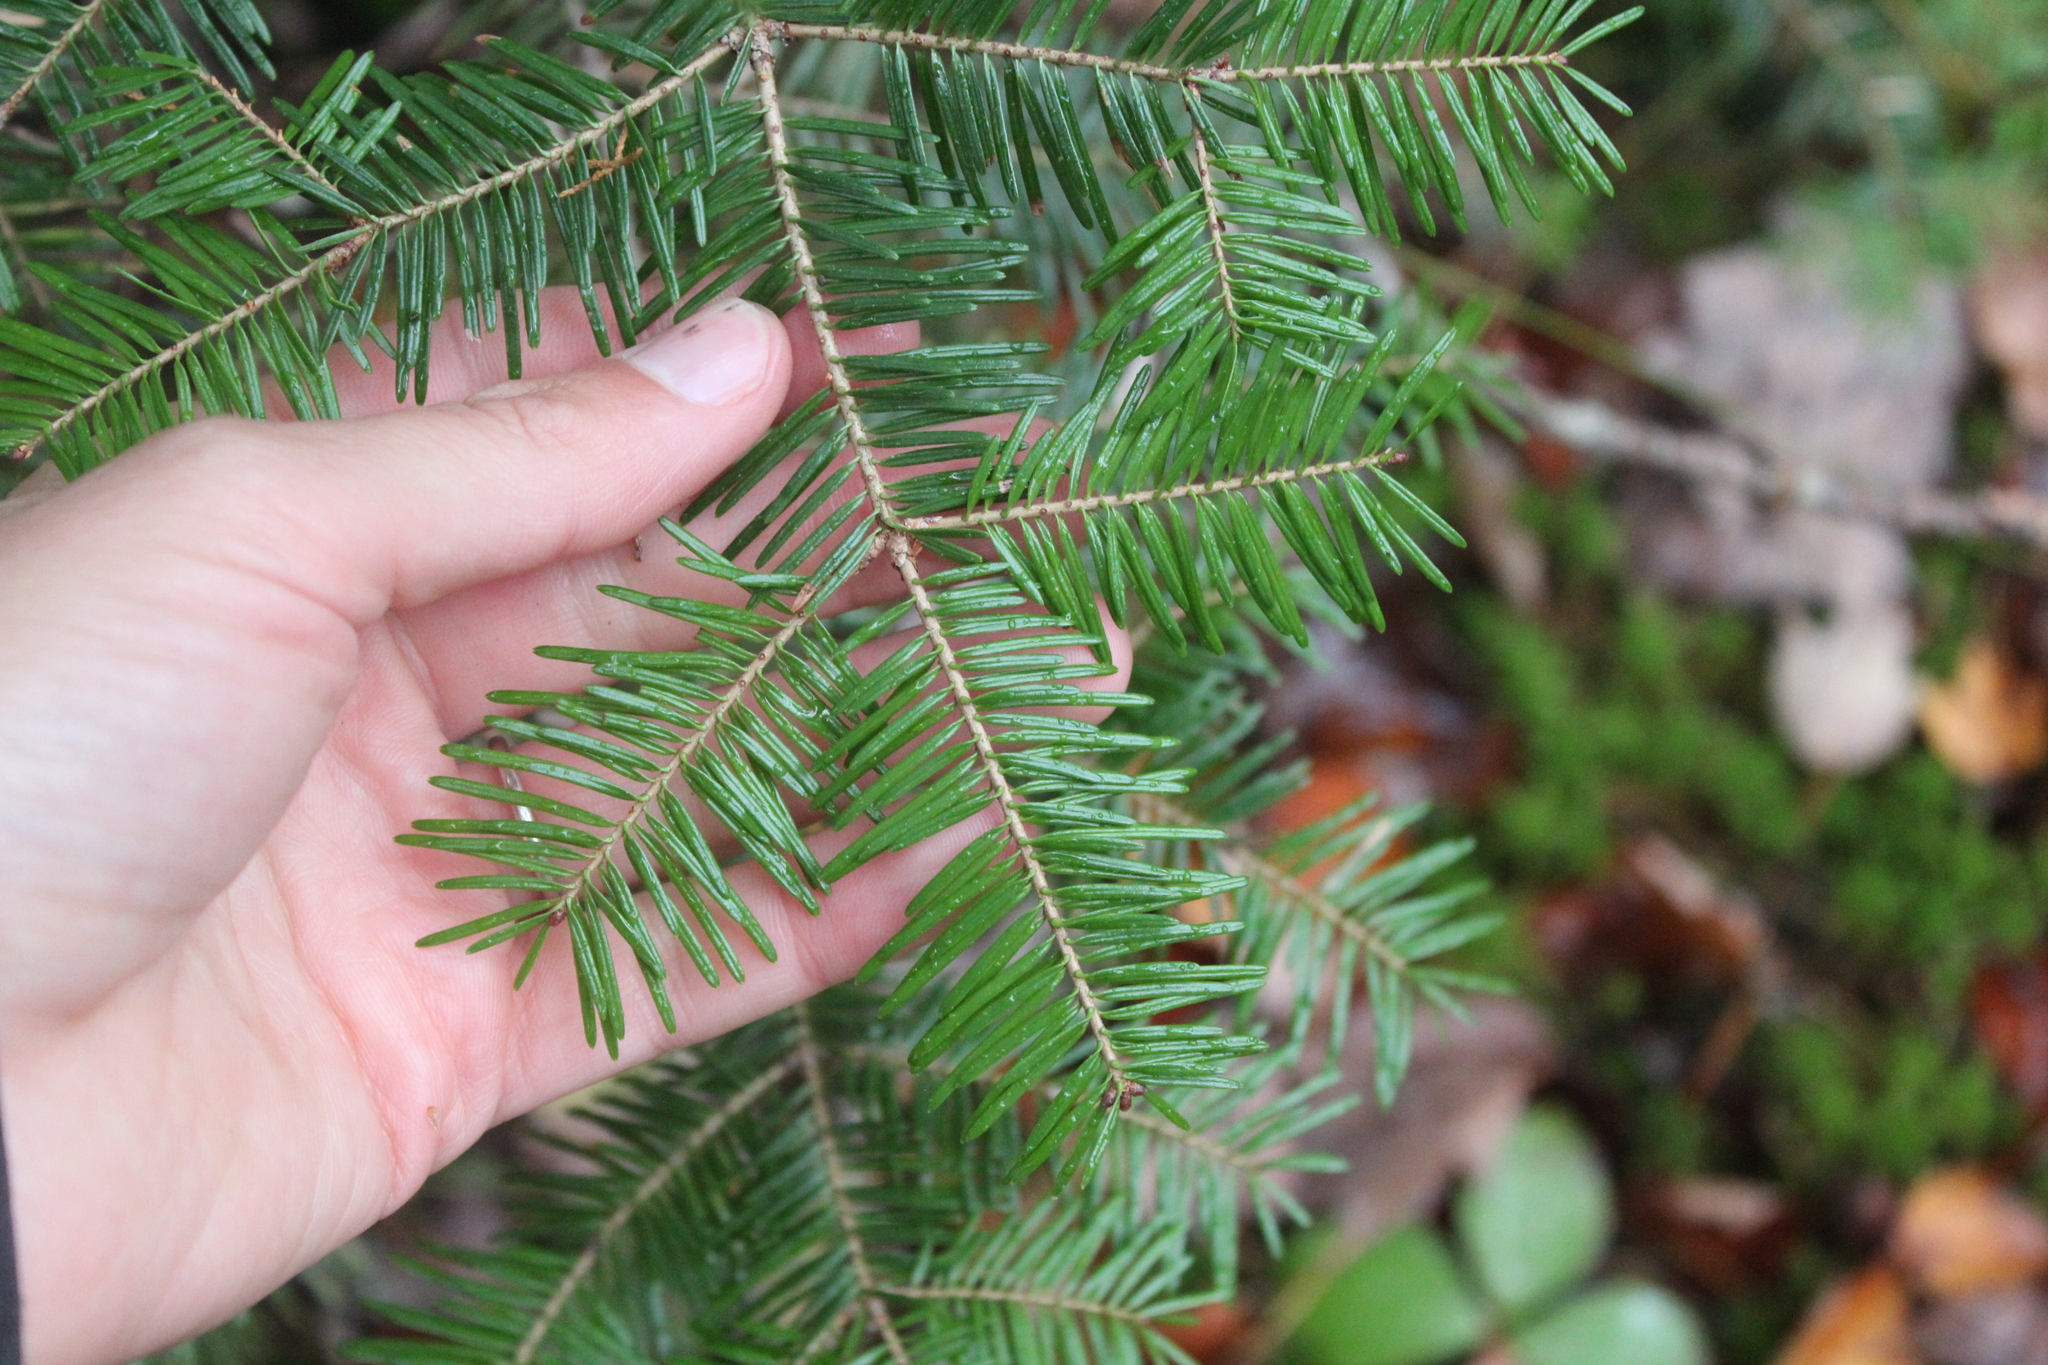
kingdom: Plantae
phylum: Tracheophyta
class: Pinopsida
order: Pinales
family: Pinaceae
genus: Abies
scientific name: Abies balsamea
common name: Balsam fir
